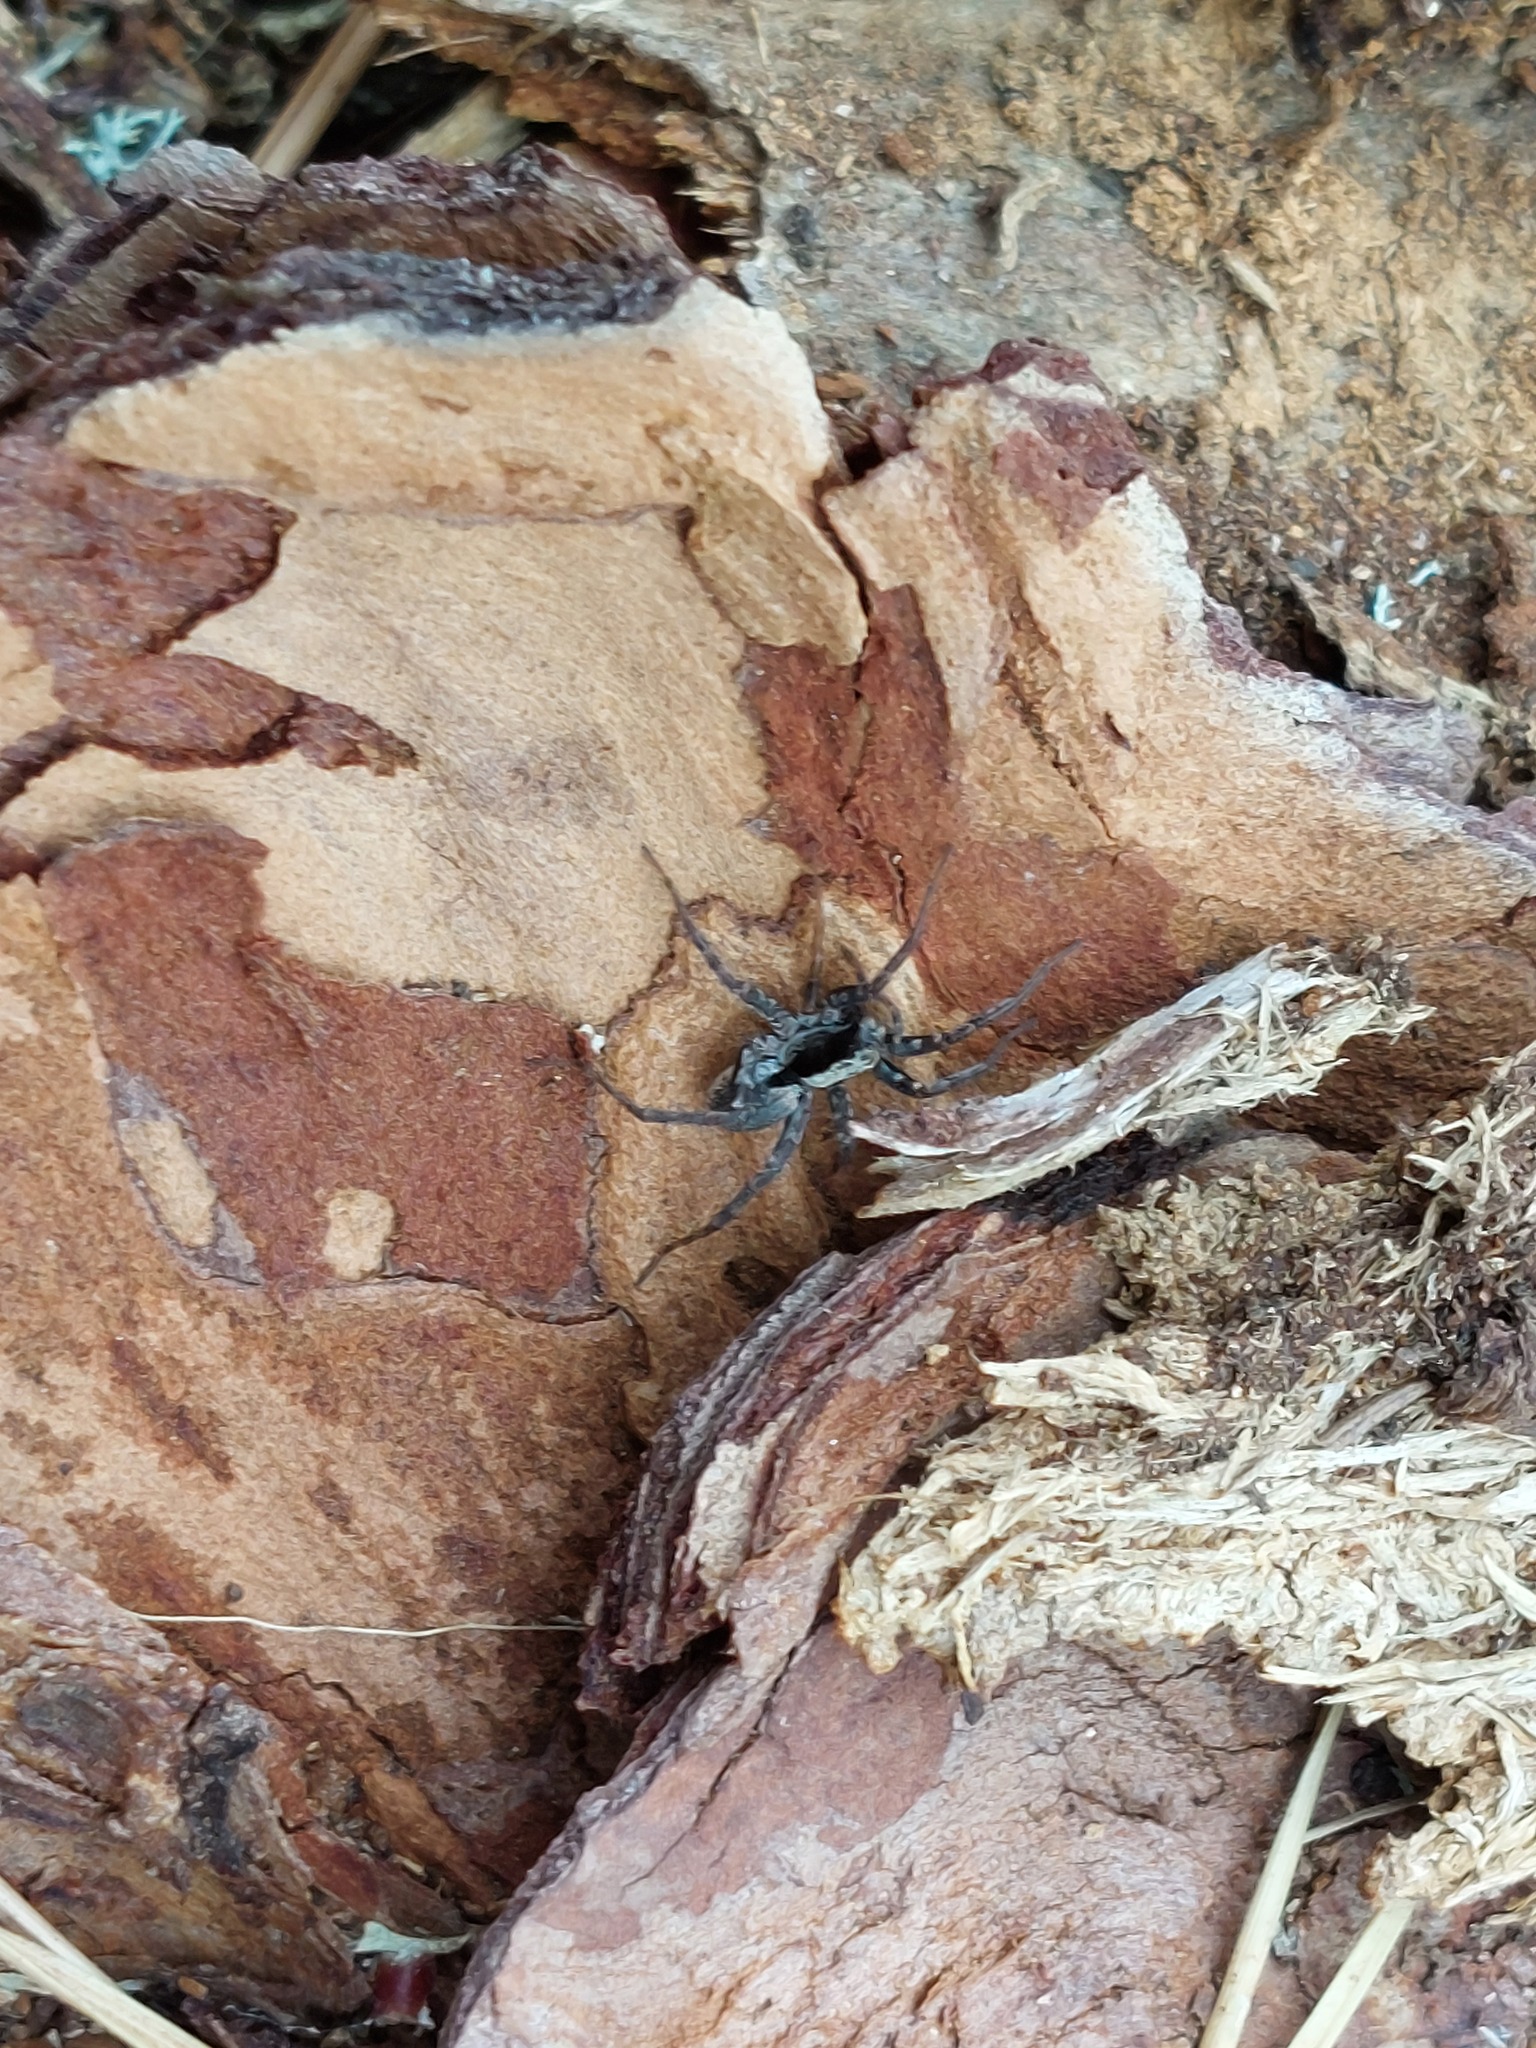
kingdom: Animalia
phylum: Arthropoda
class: Arachnida
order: Araneae
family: Lycosidae
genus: Xerolycosa
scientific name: Xerolycosa nemoralis
